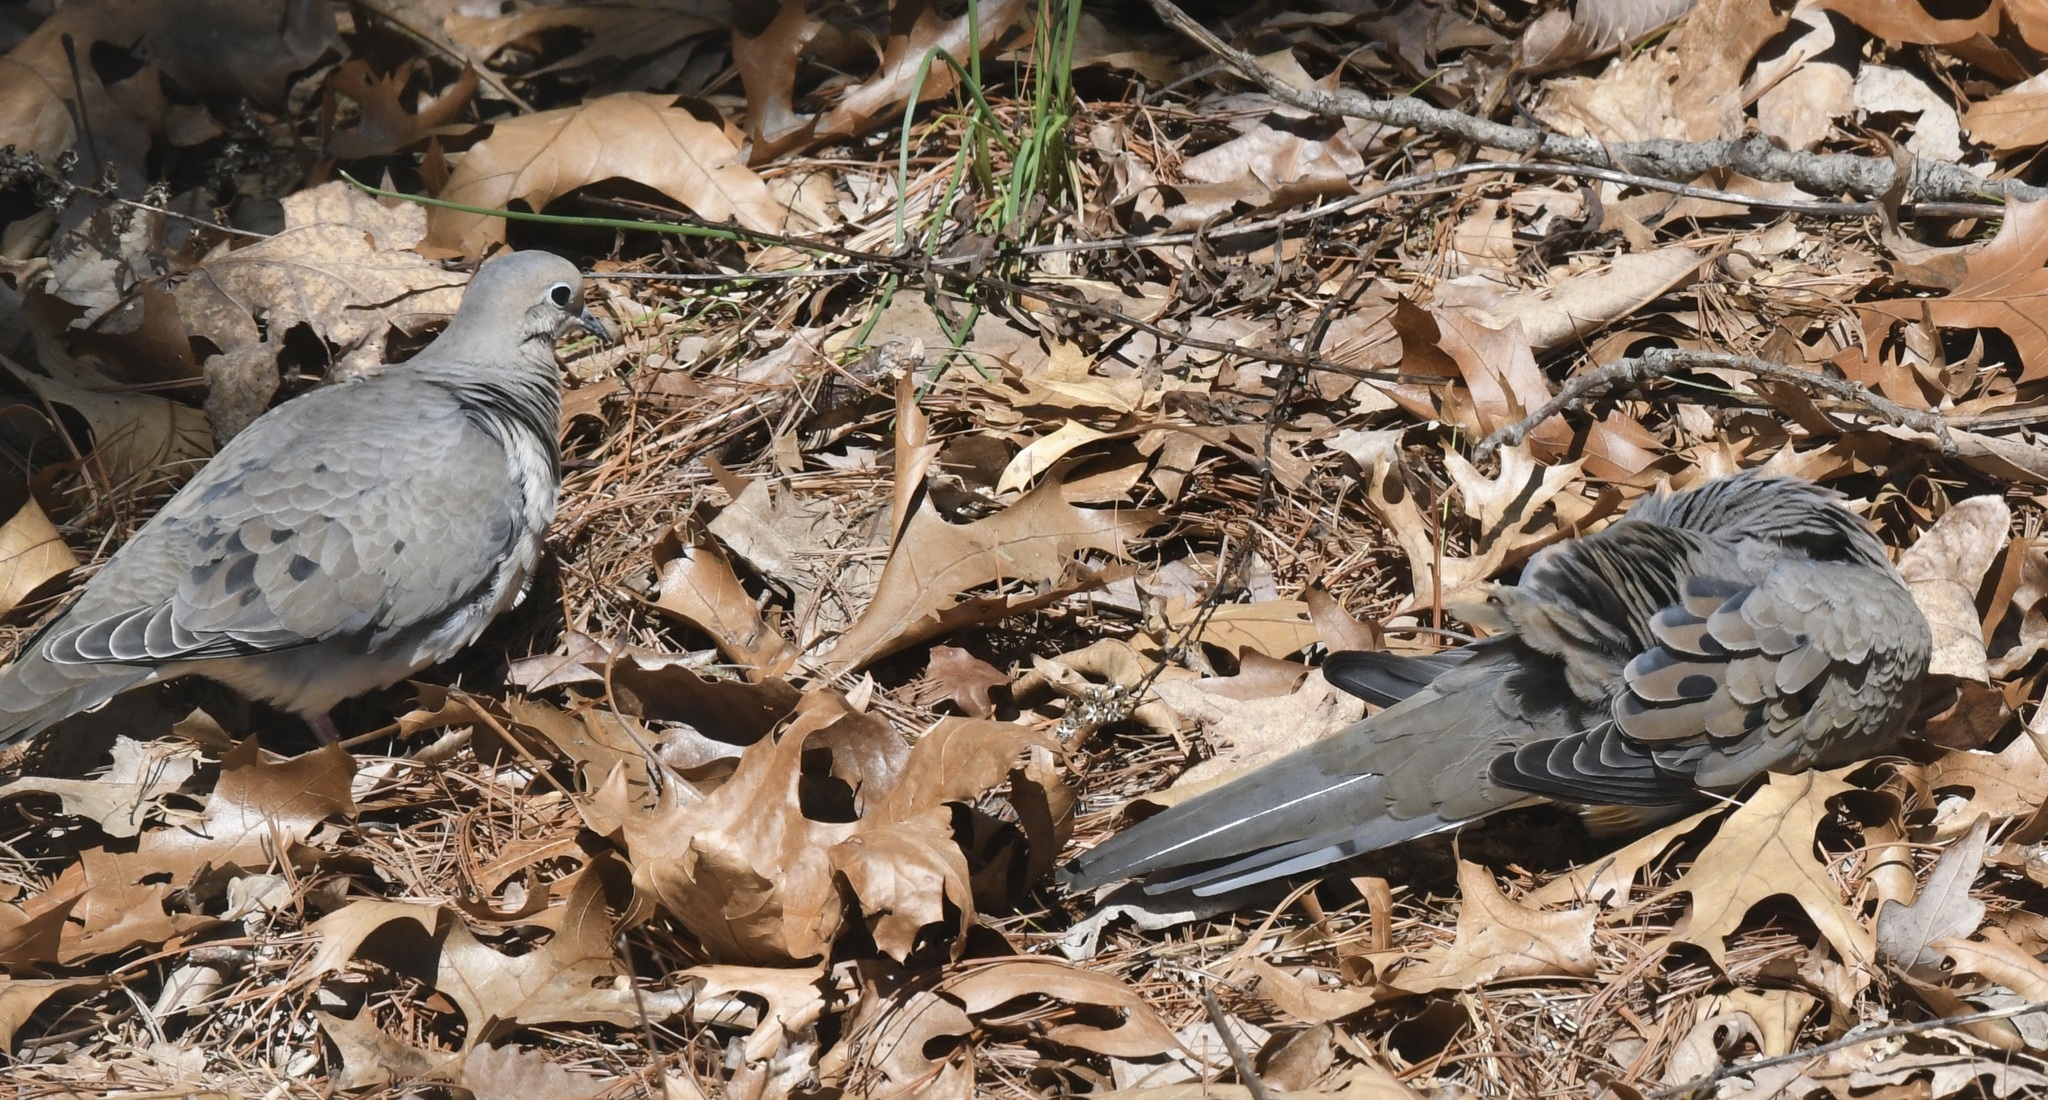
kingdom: Animalia
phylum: Chordata
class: Aves
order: Columbiformes
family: Columbidae
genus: Zenaida
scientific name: Zenaida macroura
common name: Mourning dove
